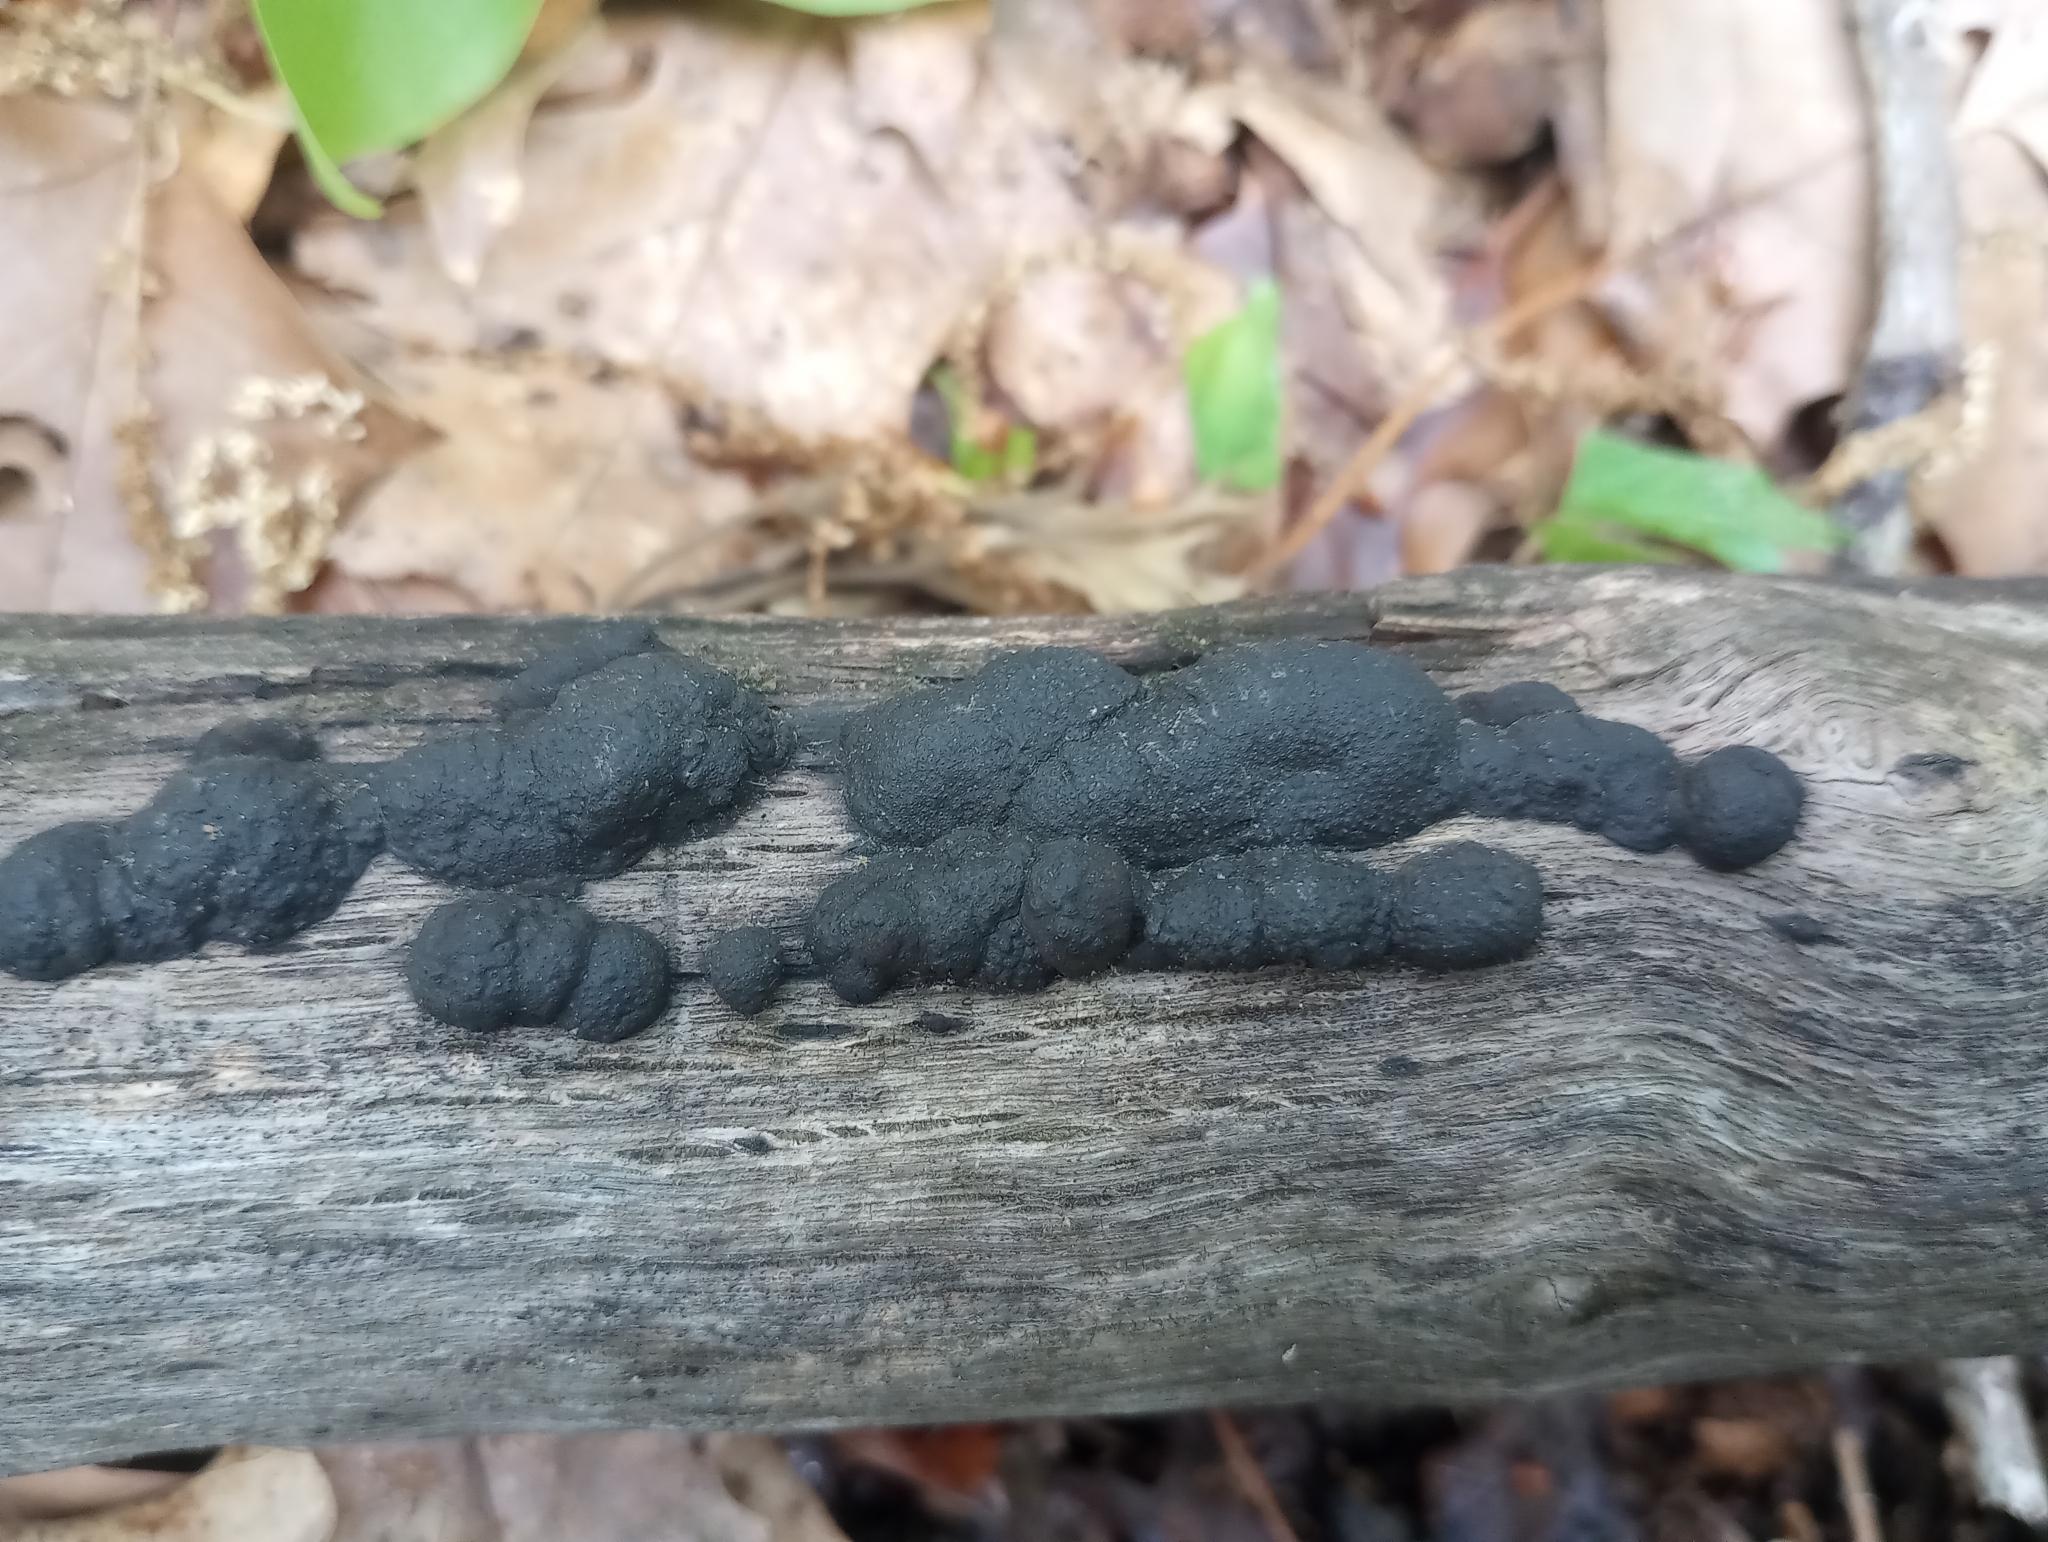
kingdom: Fungi
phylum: Ascomycota
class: Sordariomycetes
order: Xylariales
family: Hypoxylaceae
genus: Annulohypoxylon
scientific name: Annulohypoxylon annulatum
